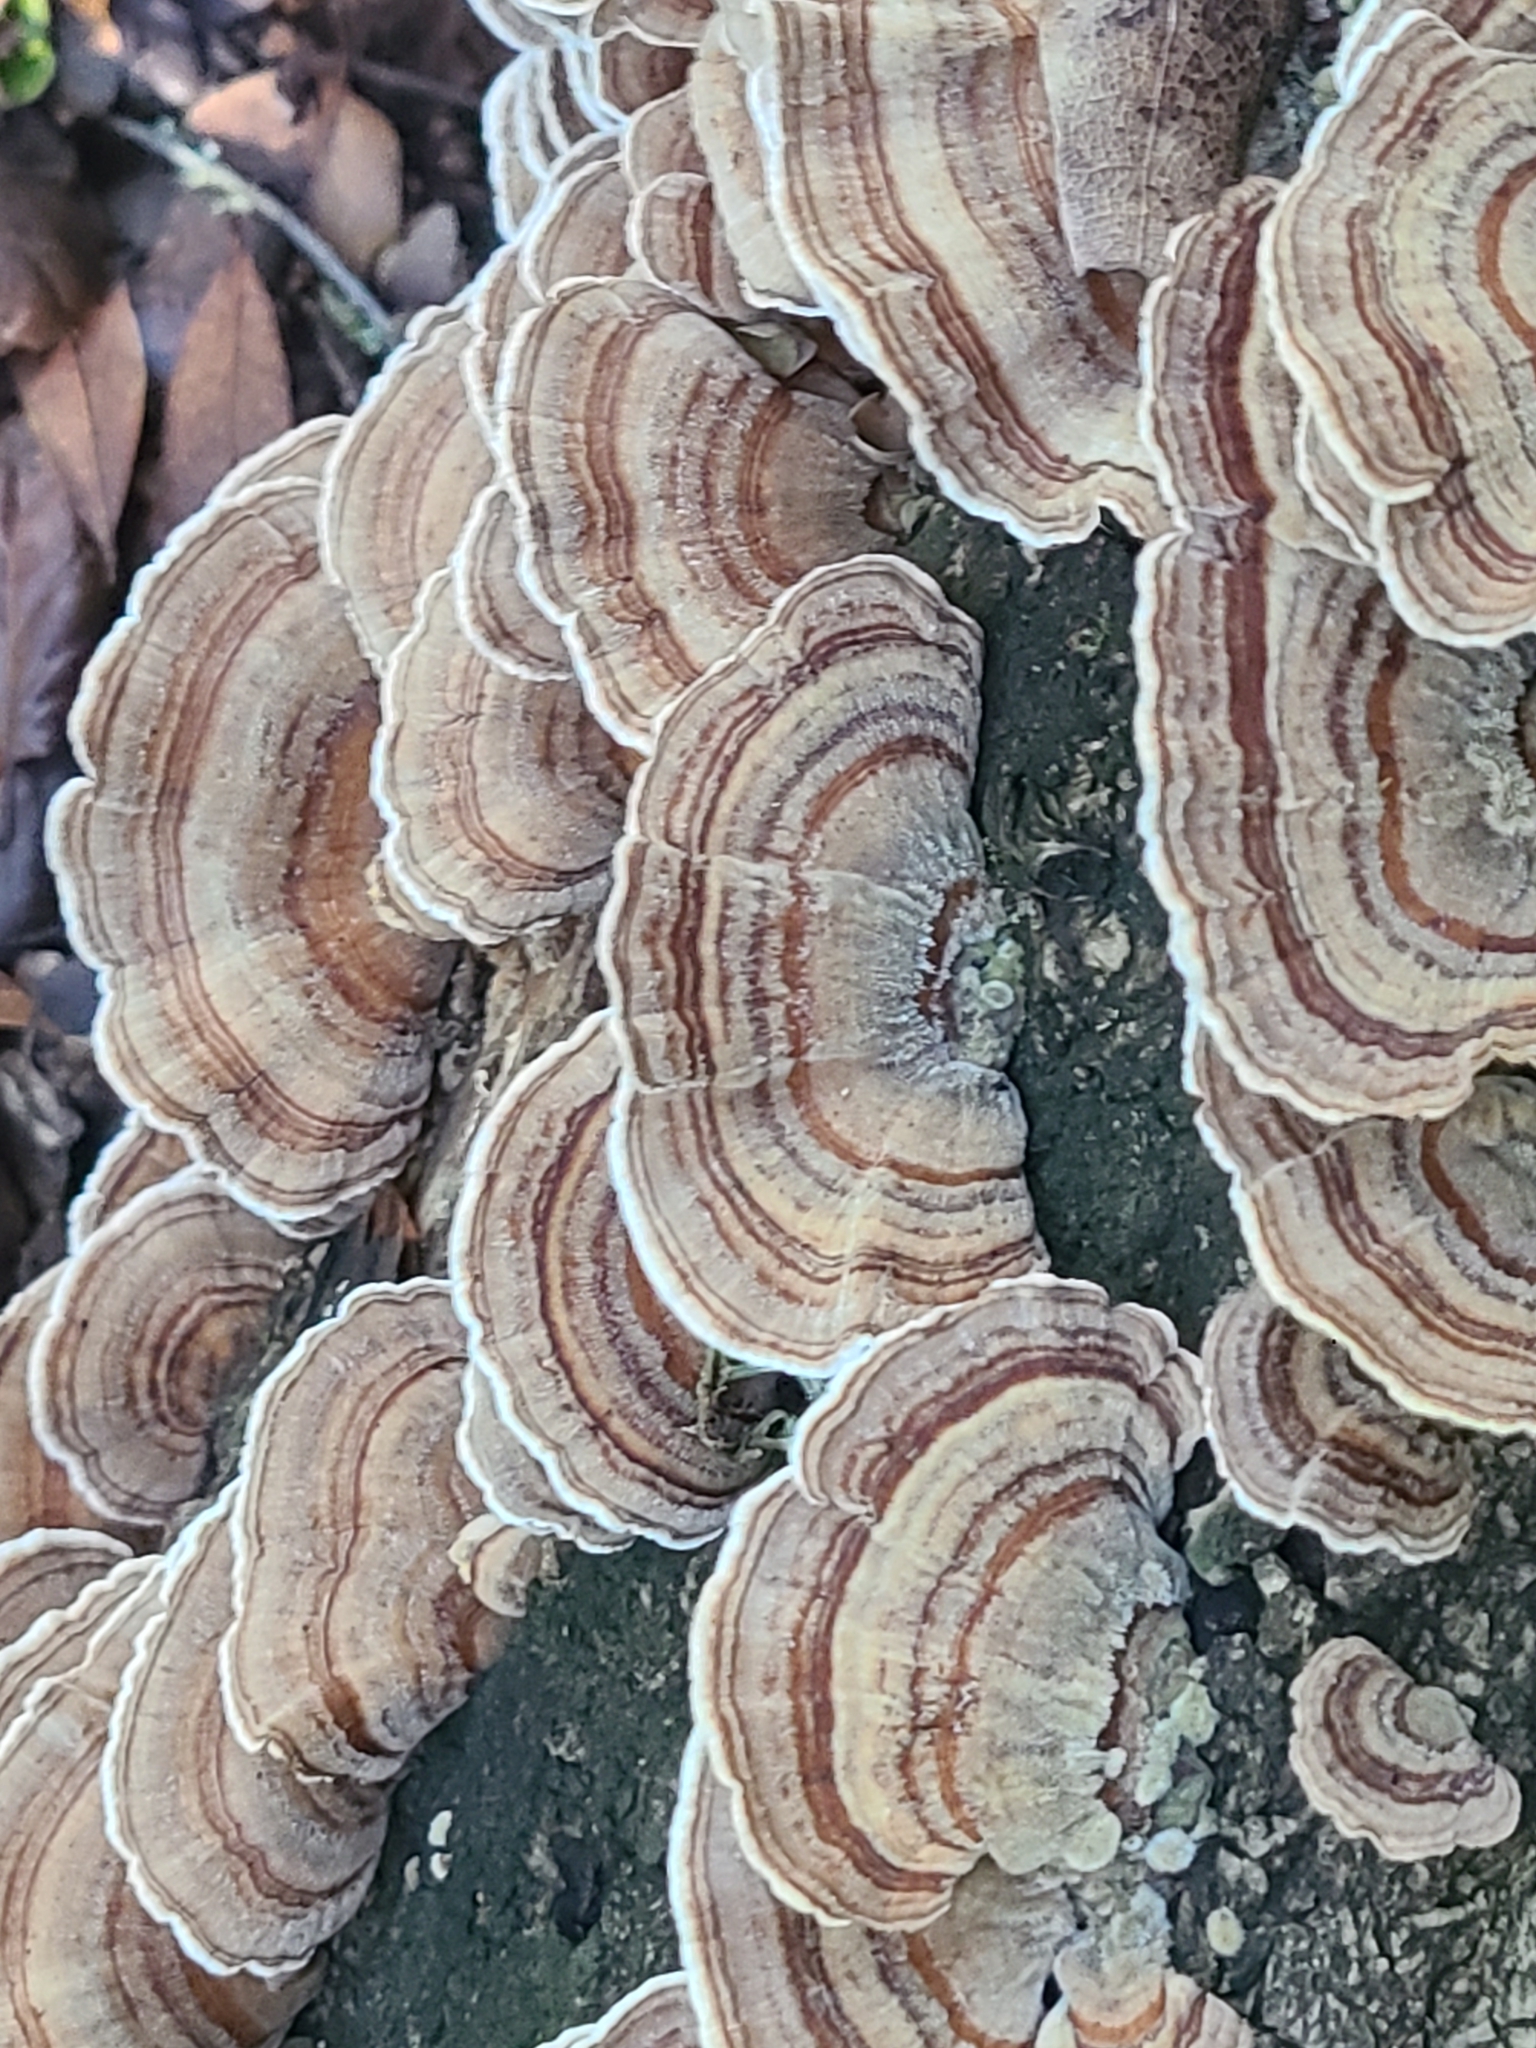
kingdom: Fungi
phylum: Basidiomycota
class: Agaricomycetes
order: Polyporales
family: Polyporaceae
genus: Trametes
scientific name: Trametes versicolor
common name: Turkeytail
